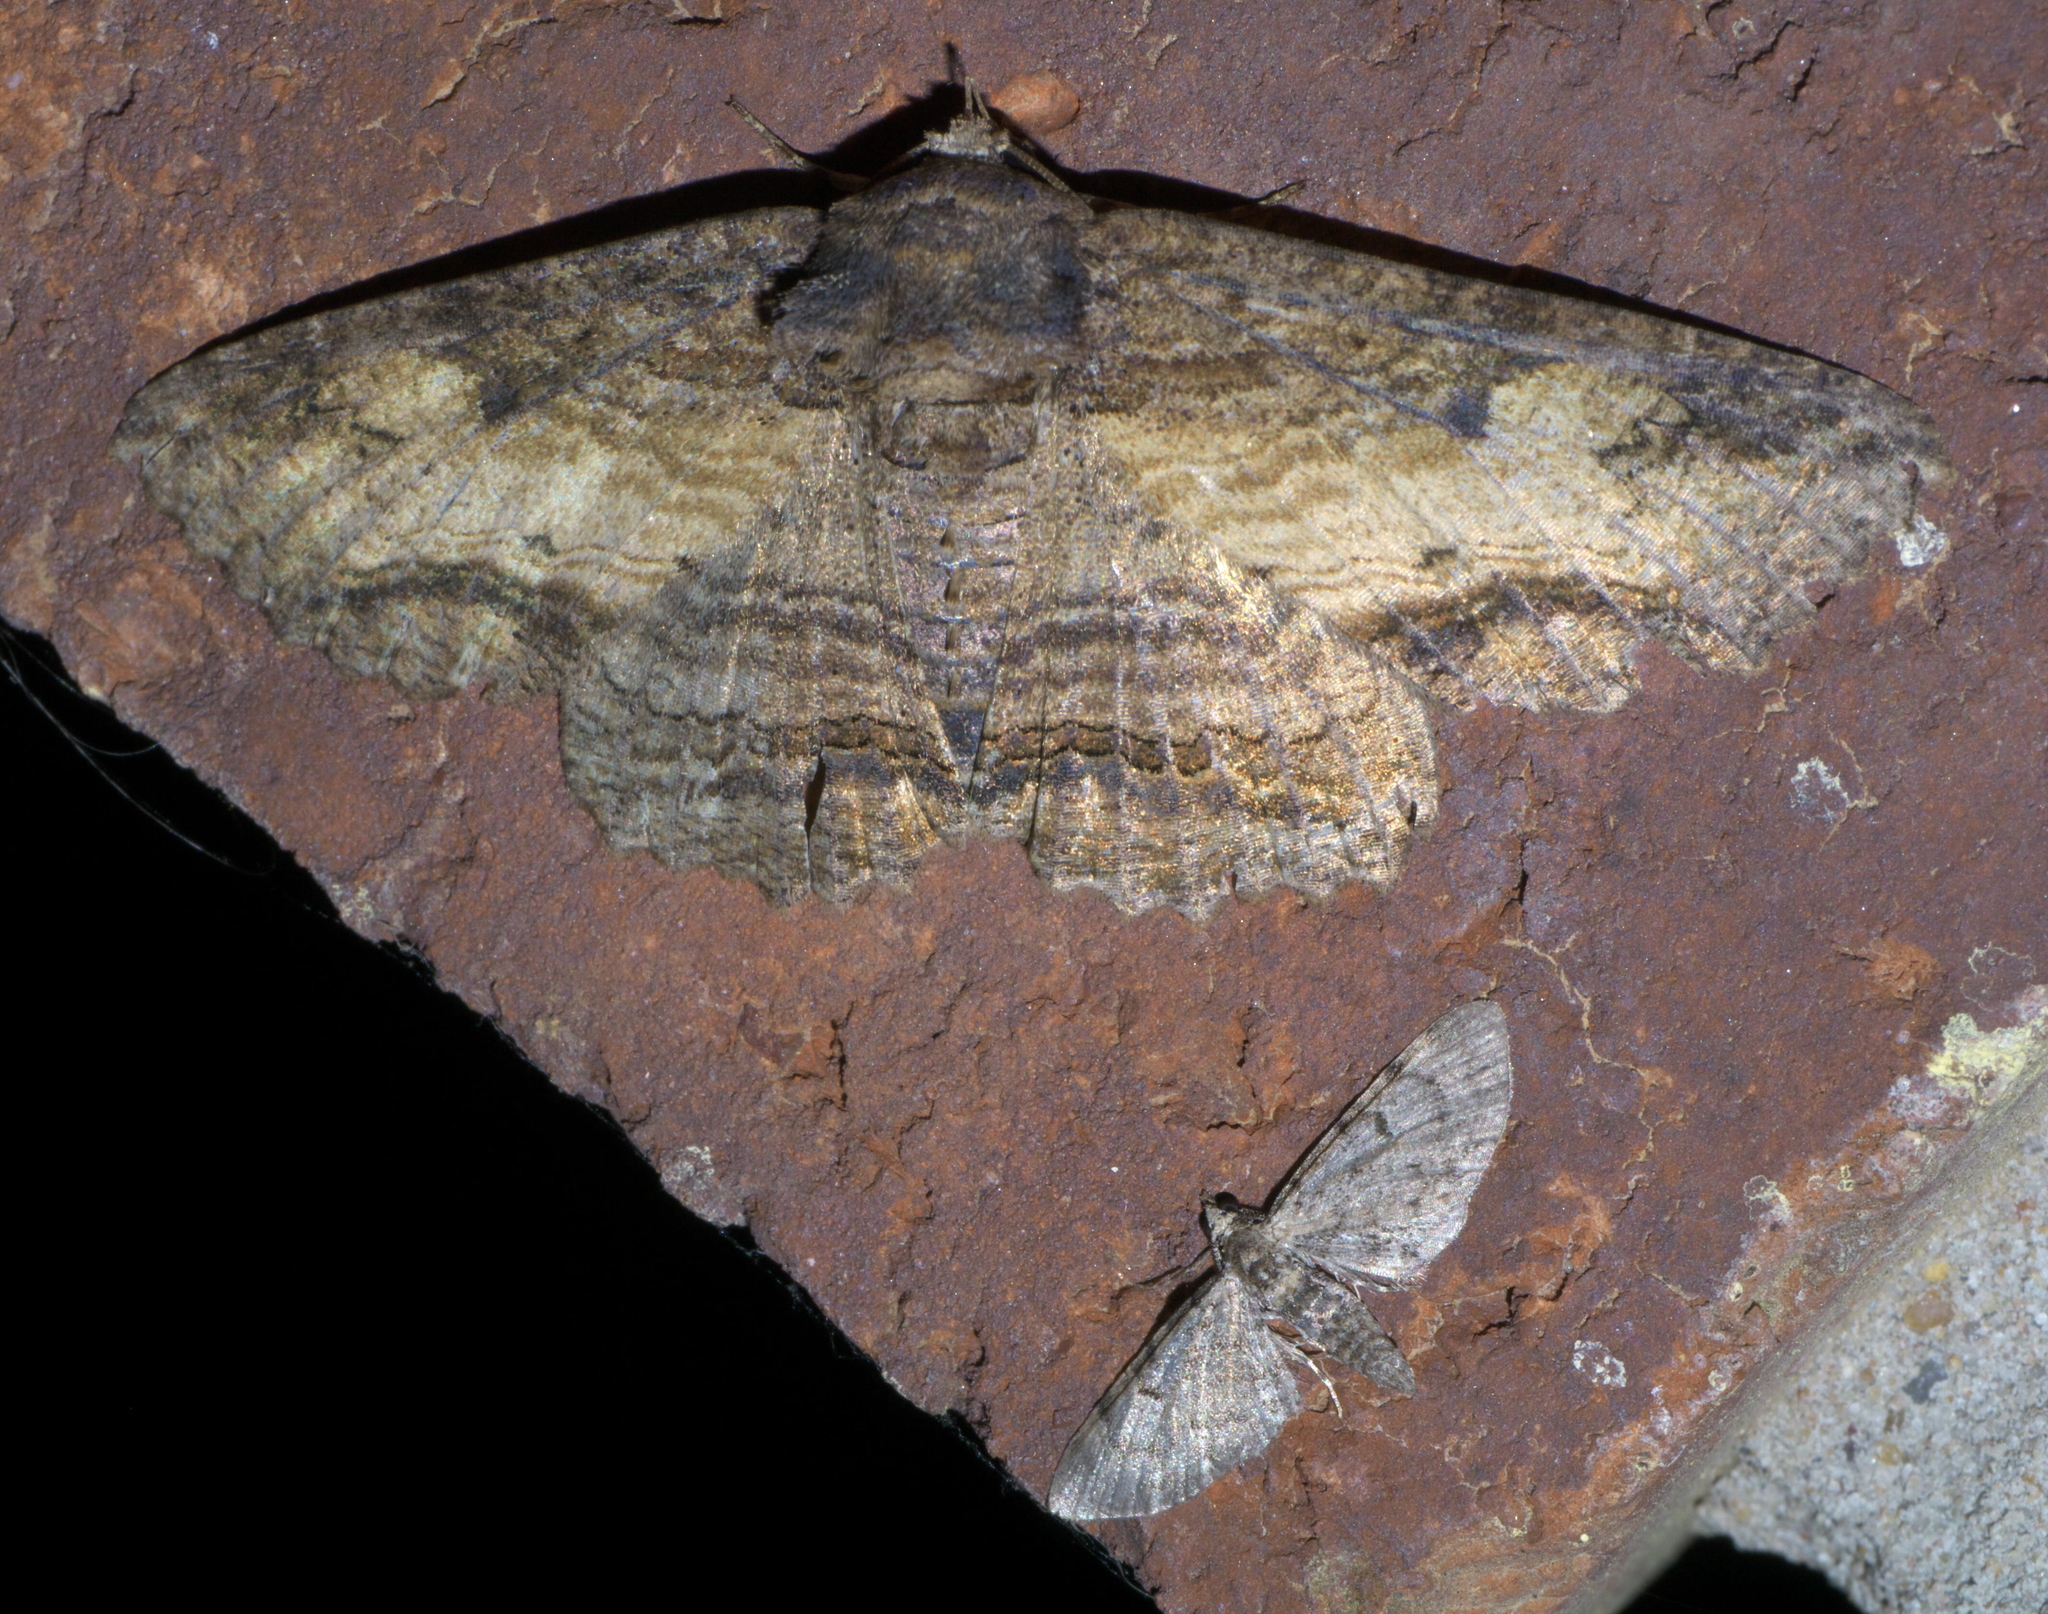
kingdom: Animalia
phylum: Arthropoda
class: Insecta
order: Lepidoptera
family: Erebidae
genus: Zale
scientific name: Zale lunata
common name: Lunate zale moth
